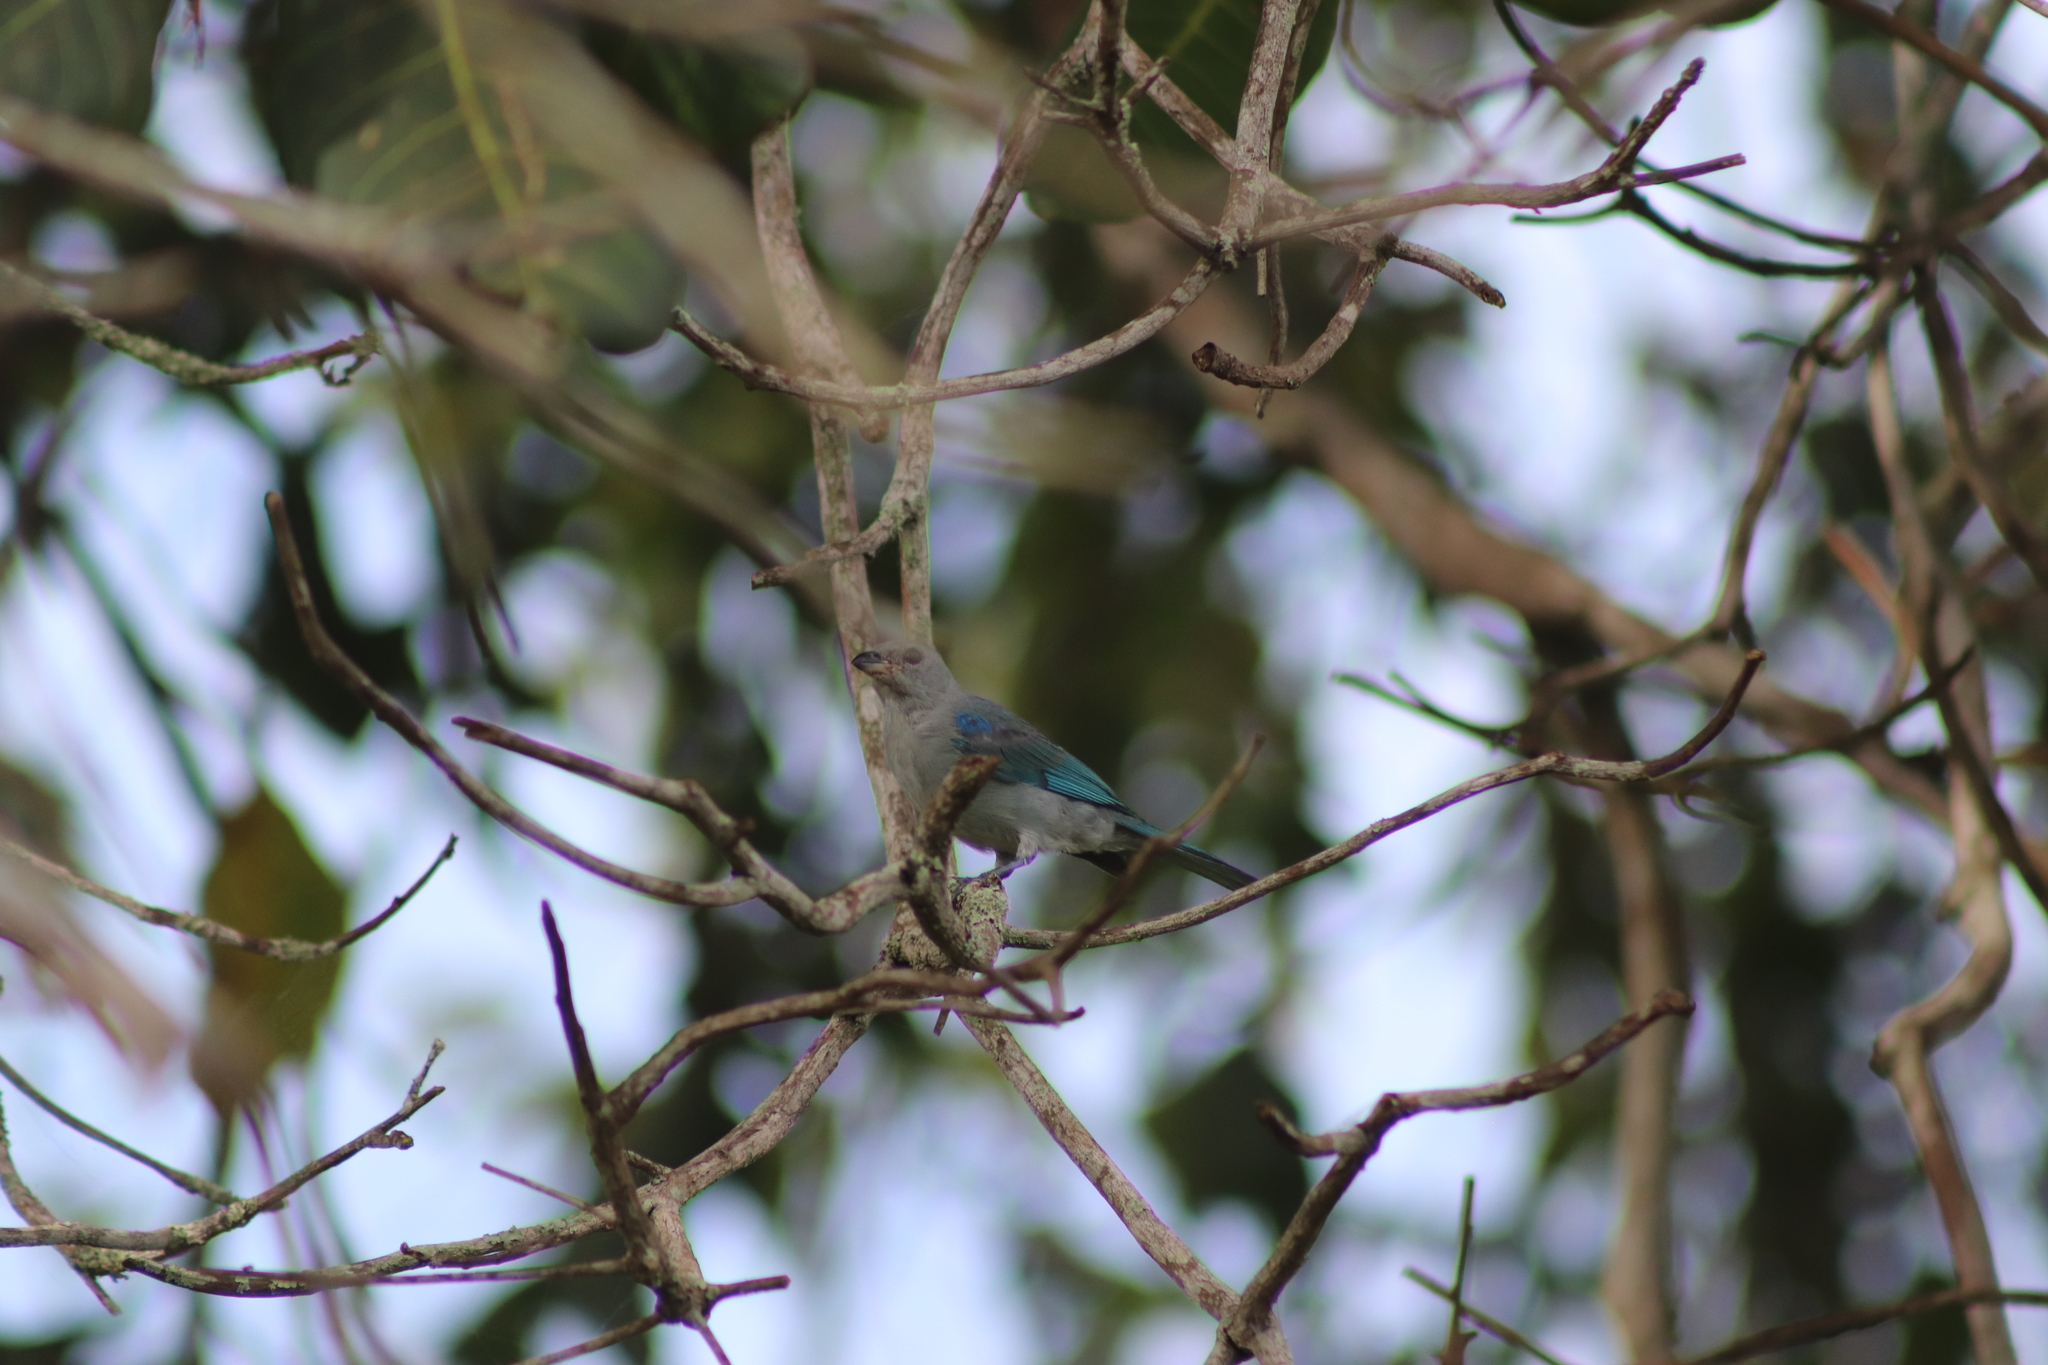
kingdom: Animalia
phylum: Chordata
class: Aves
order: Passeriformes
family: Thraupidae
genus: Thraupis
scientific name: Thraupis episcopus
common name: Blue-grey tanager
